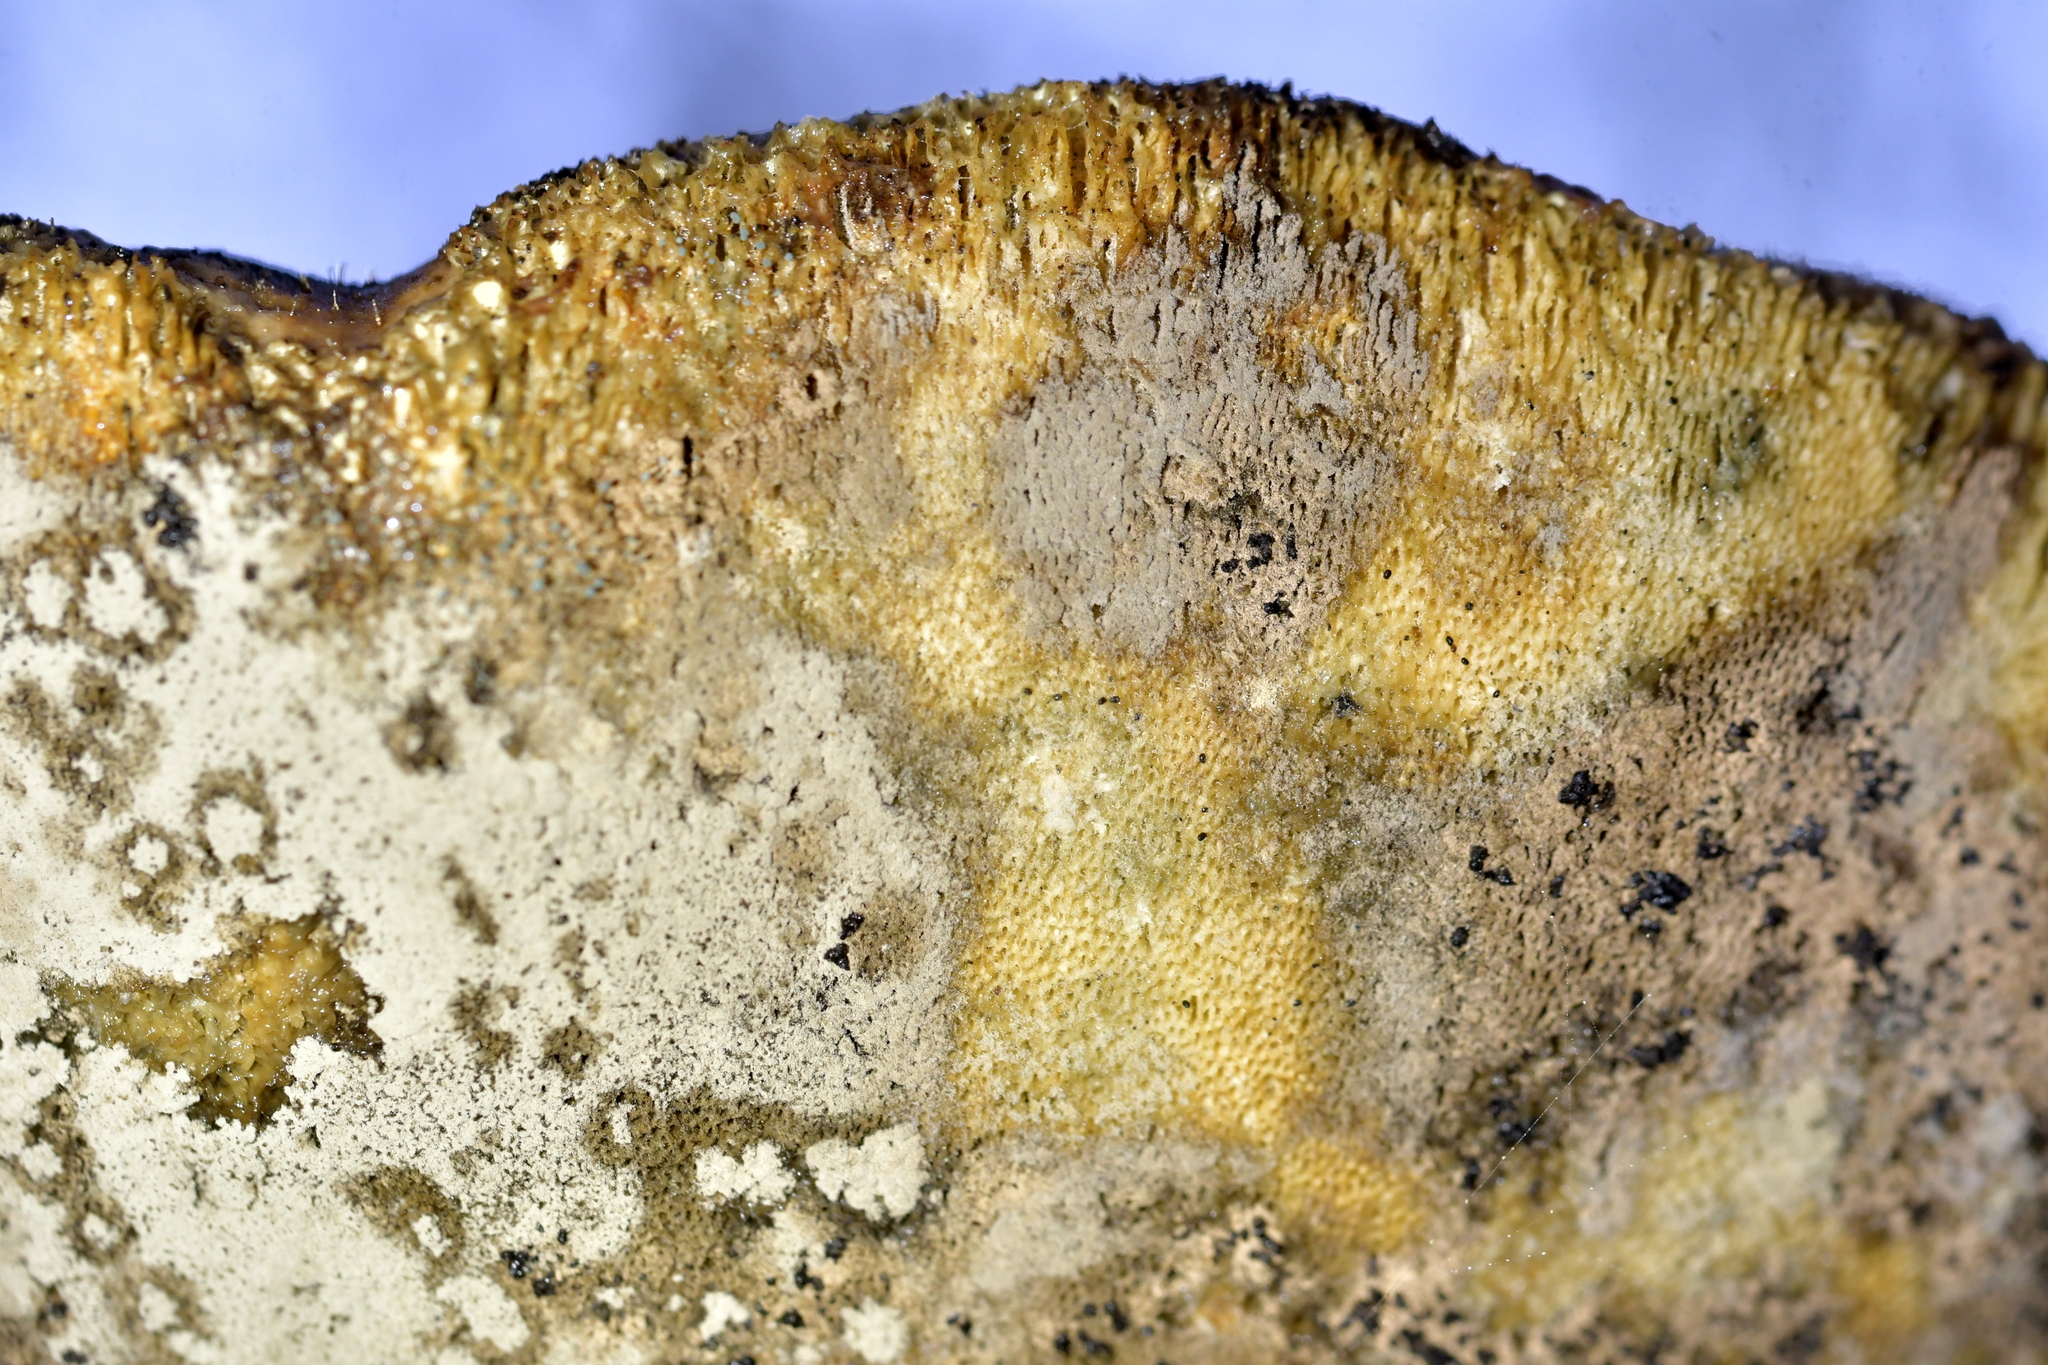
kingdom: Fungi
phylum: Basidiomycota
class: Agaricomycetes
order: Polyporales
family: Laetiporaceae
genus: Laetiporus
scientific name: Laetiporus portentosus
